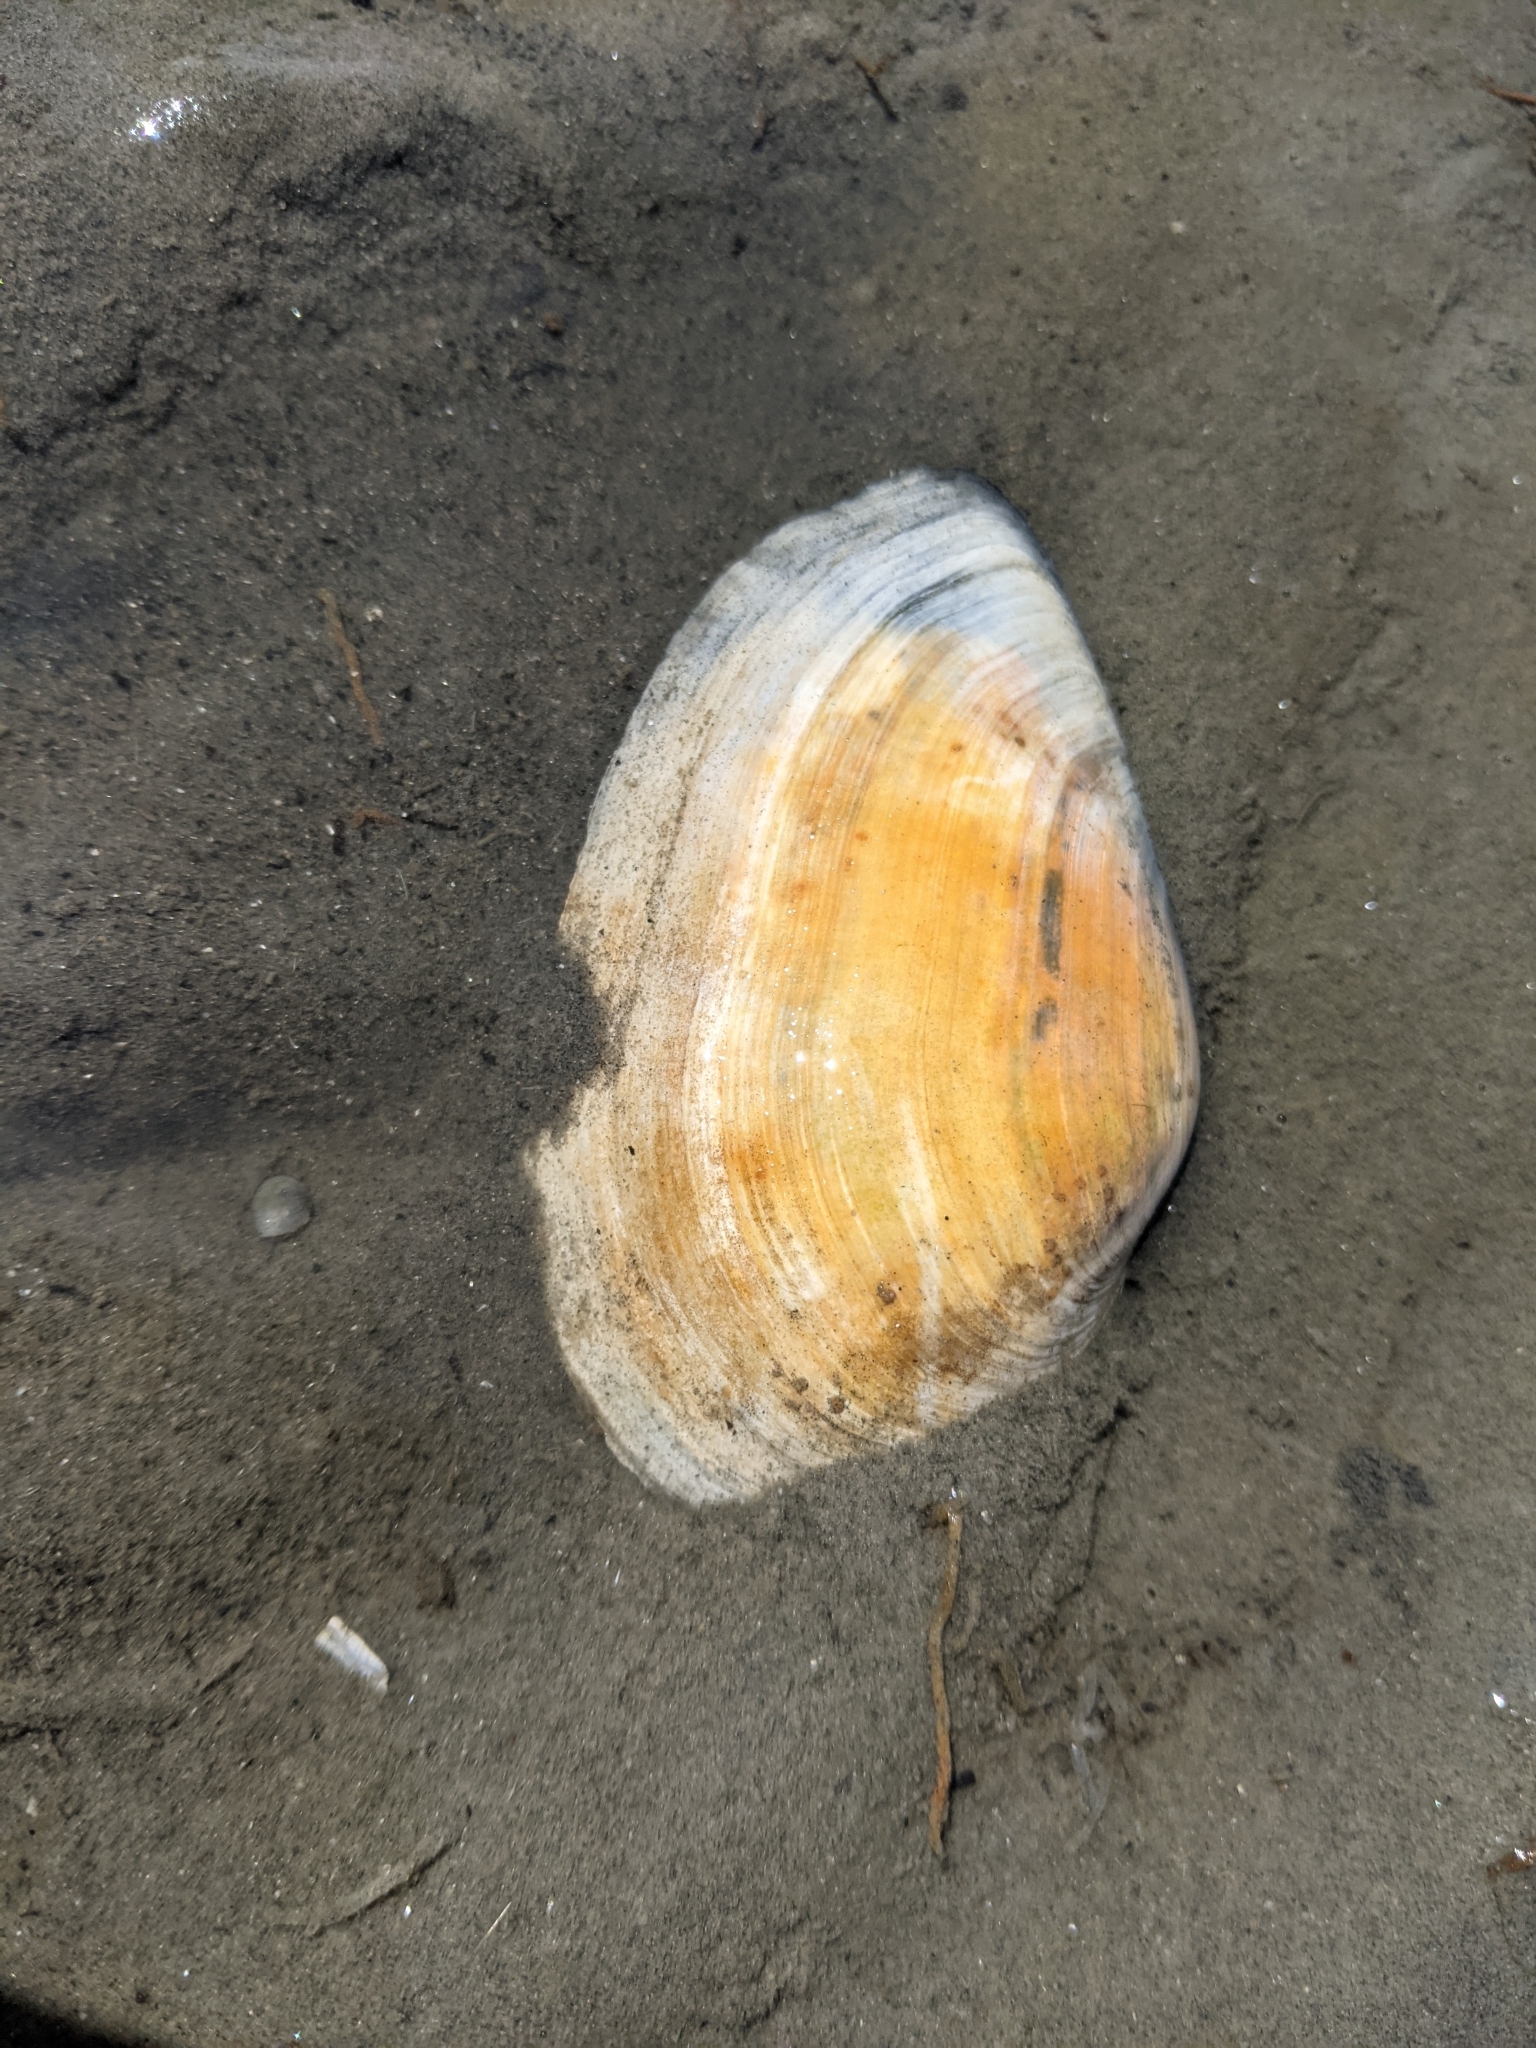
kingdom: Animalia
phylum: Mollusca
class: Bivalvia
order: Myida
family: Myidae
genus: Mya
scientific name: Mya arenaria
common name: Soft-shelled clam
